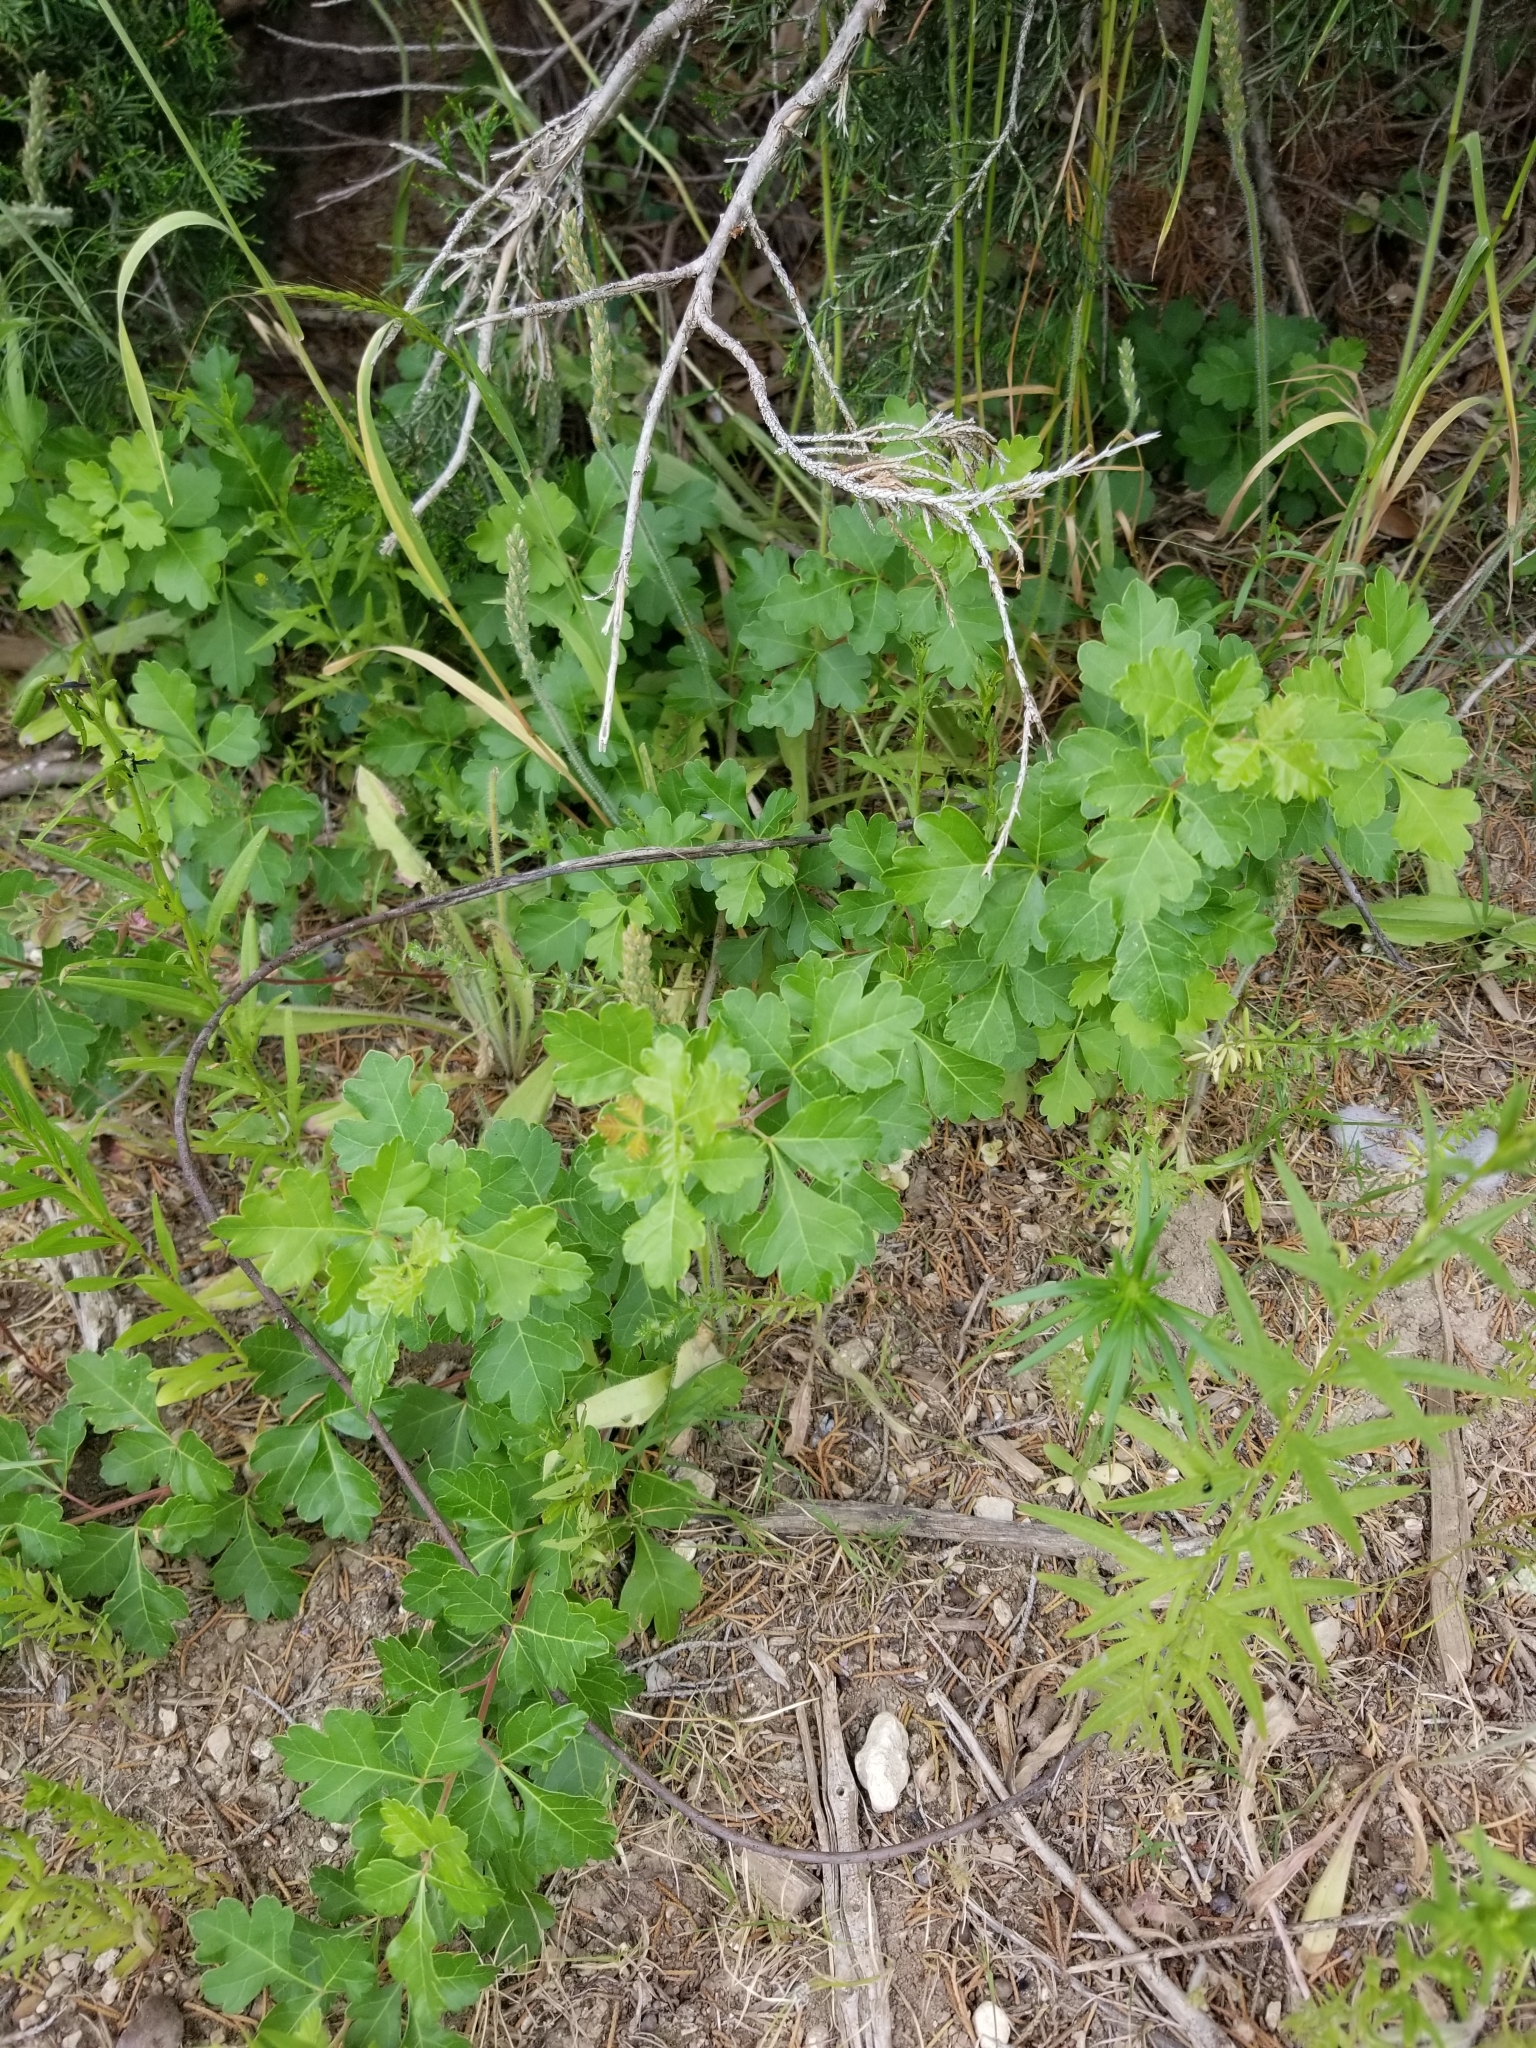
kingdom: Plantae
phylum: Tracheophyta
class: Magnoliopsida
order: Sapindales
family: Anacardiaceae
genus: Rhus
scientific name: Rhus aromatica
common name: Aromatic sumac
